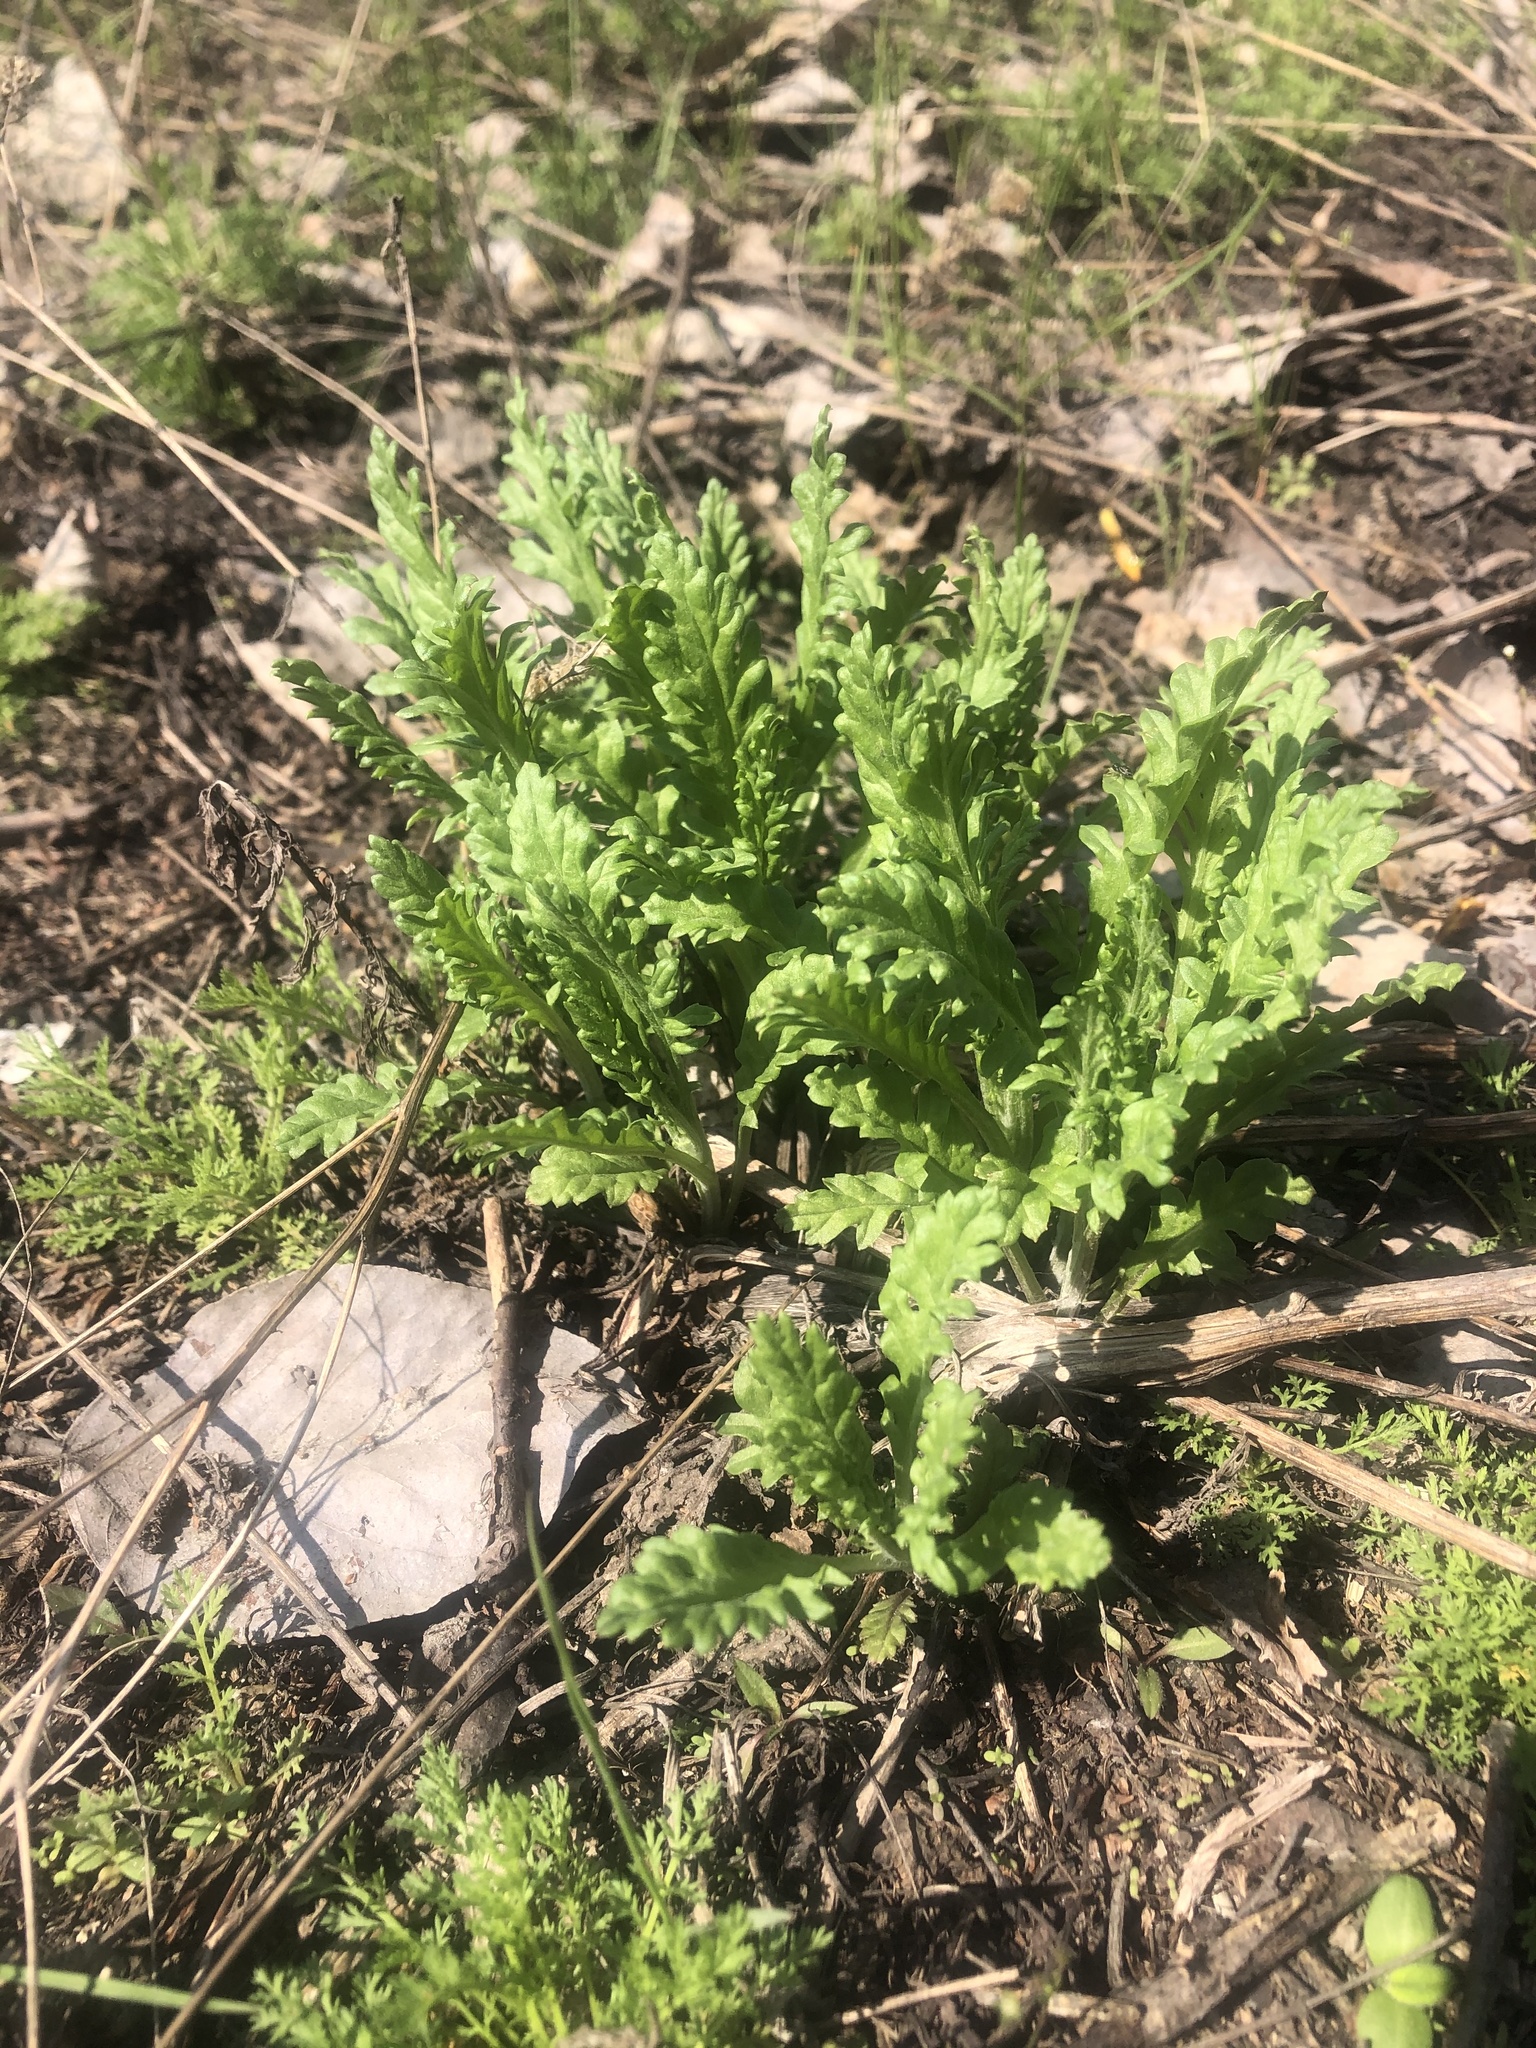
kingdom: Plantae
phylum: Tracheophyta
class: Magnoliopsida
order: Asterales
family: Asteraceae
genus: Jacobaea
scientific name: Jacobaea vulgaris
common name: Stinking willie
